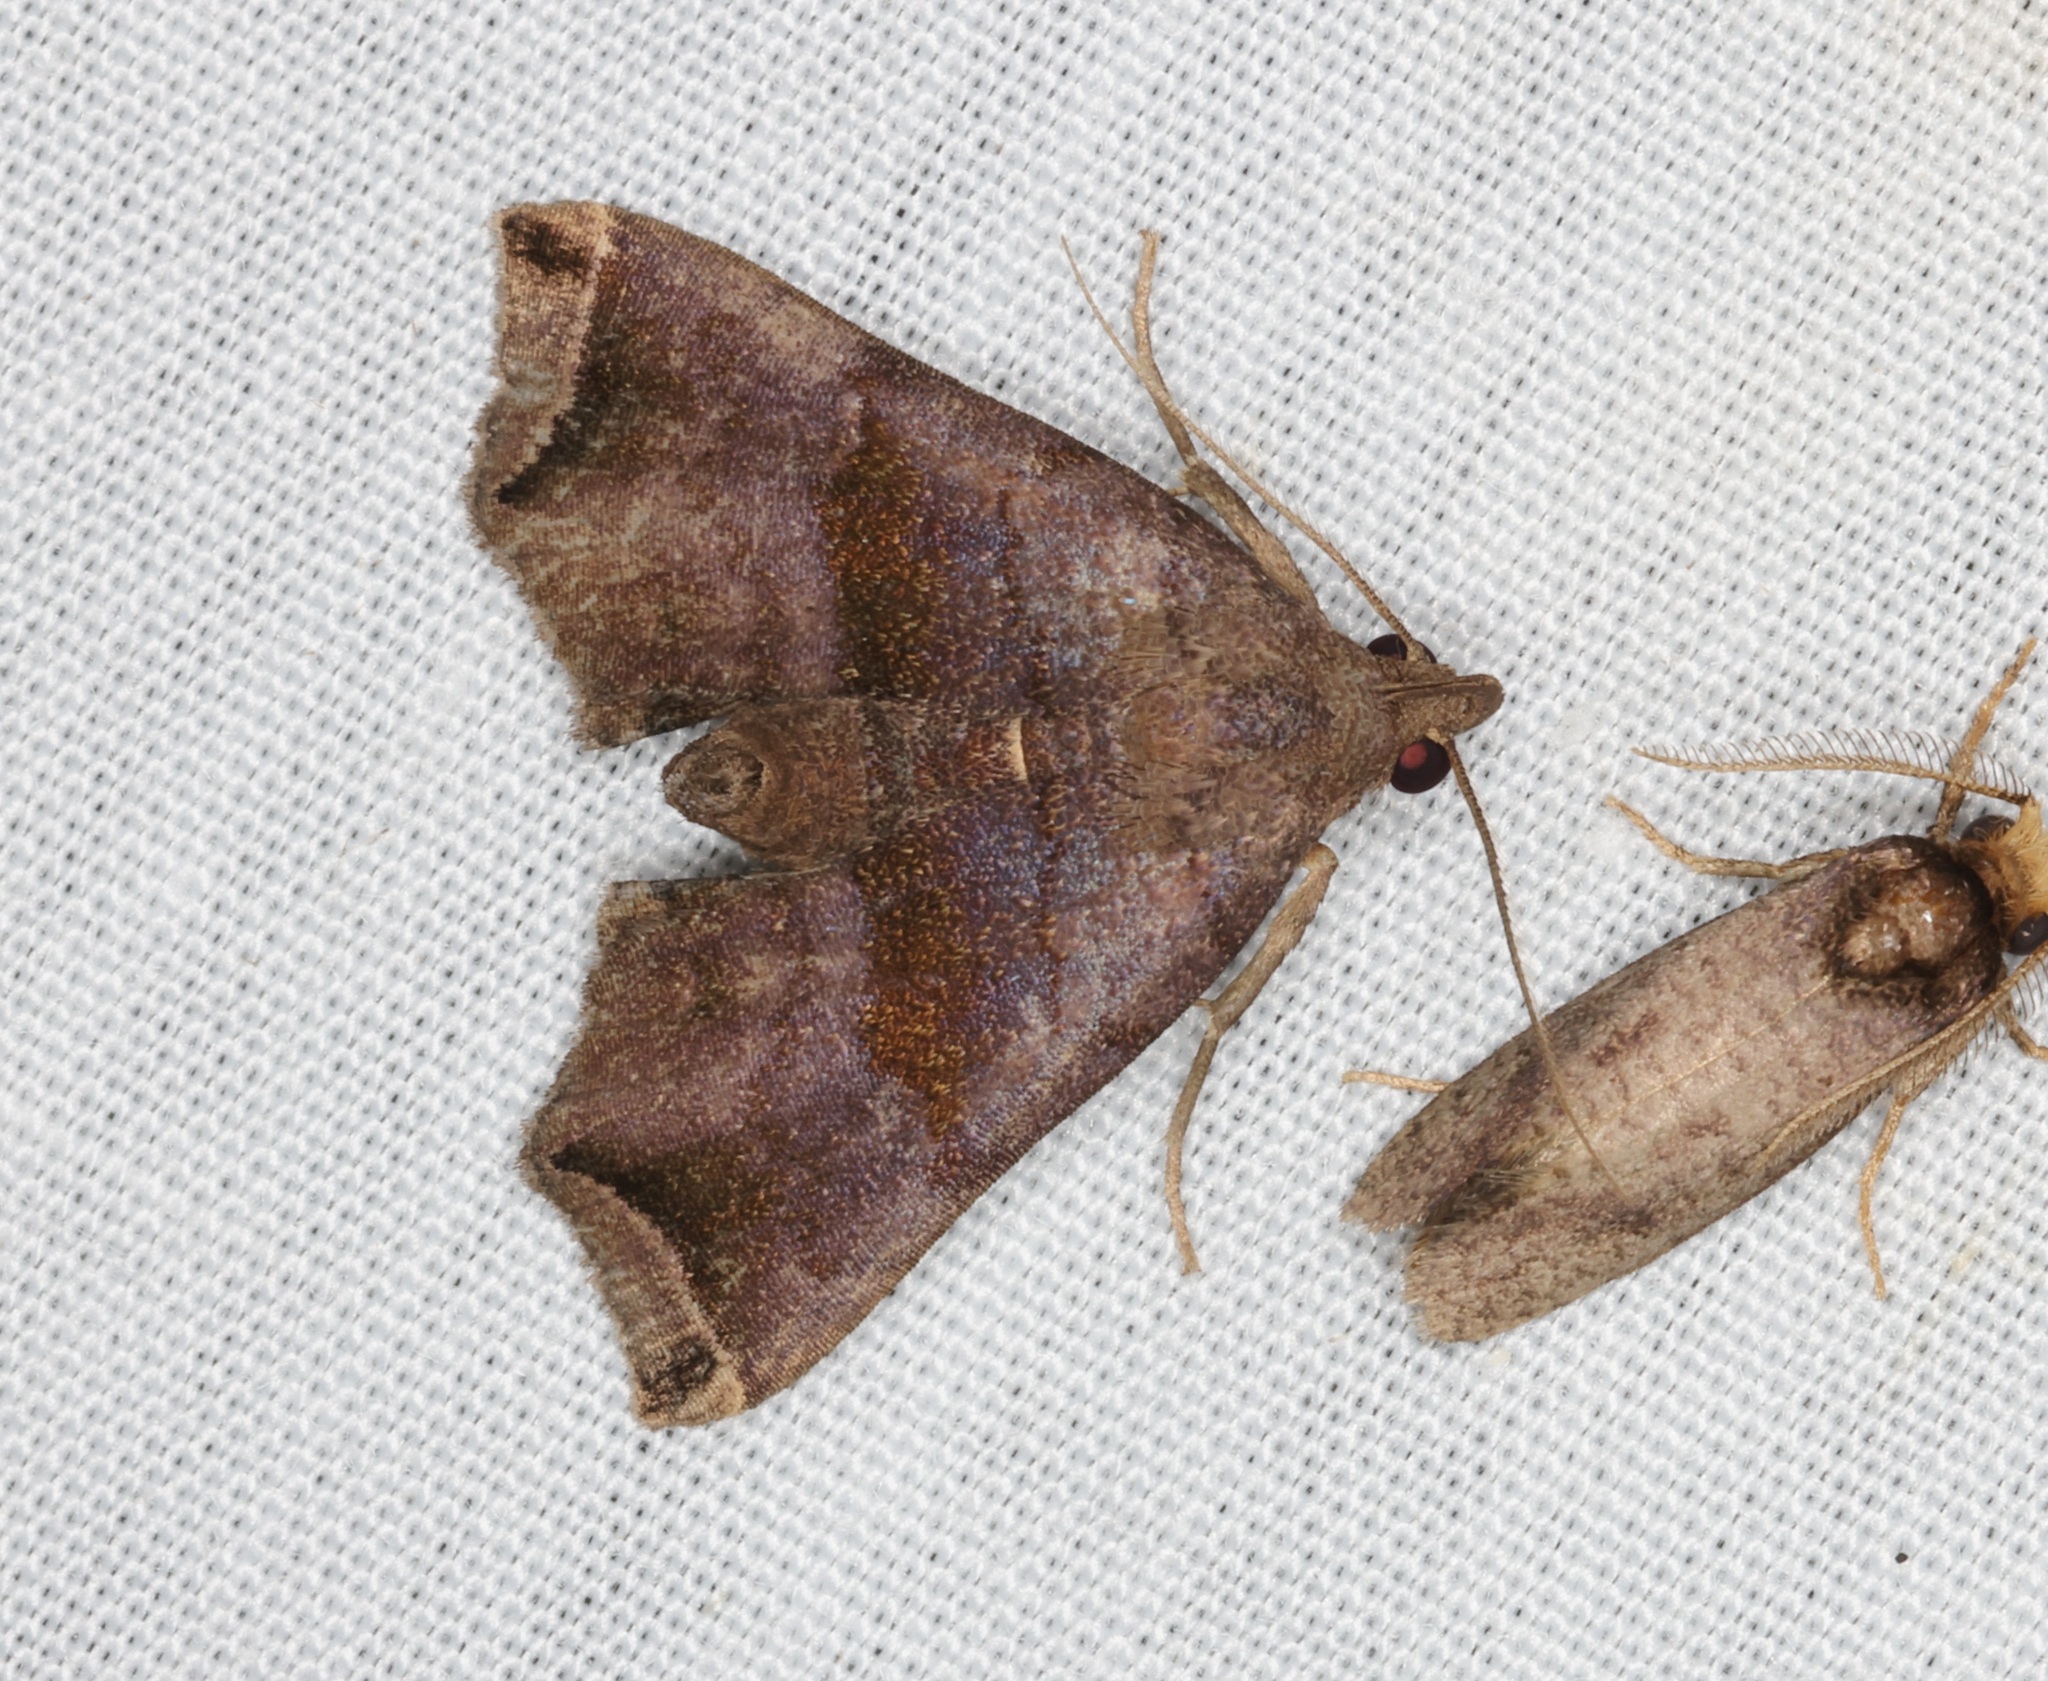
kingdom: Animalia
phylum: Arthropoda
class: Insecta
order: Lepidoptera
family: Erebidae
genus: Polypogon
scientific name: Polypogon biasalis
